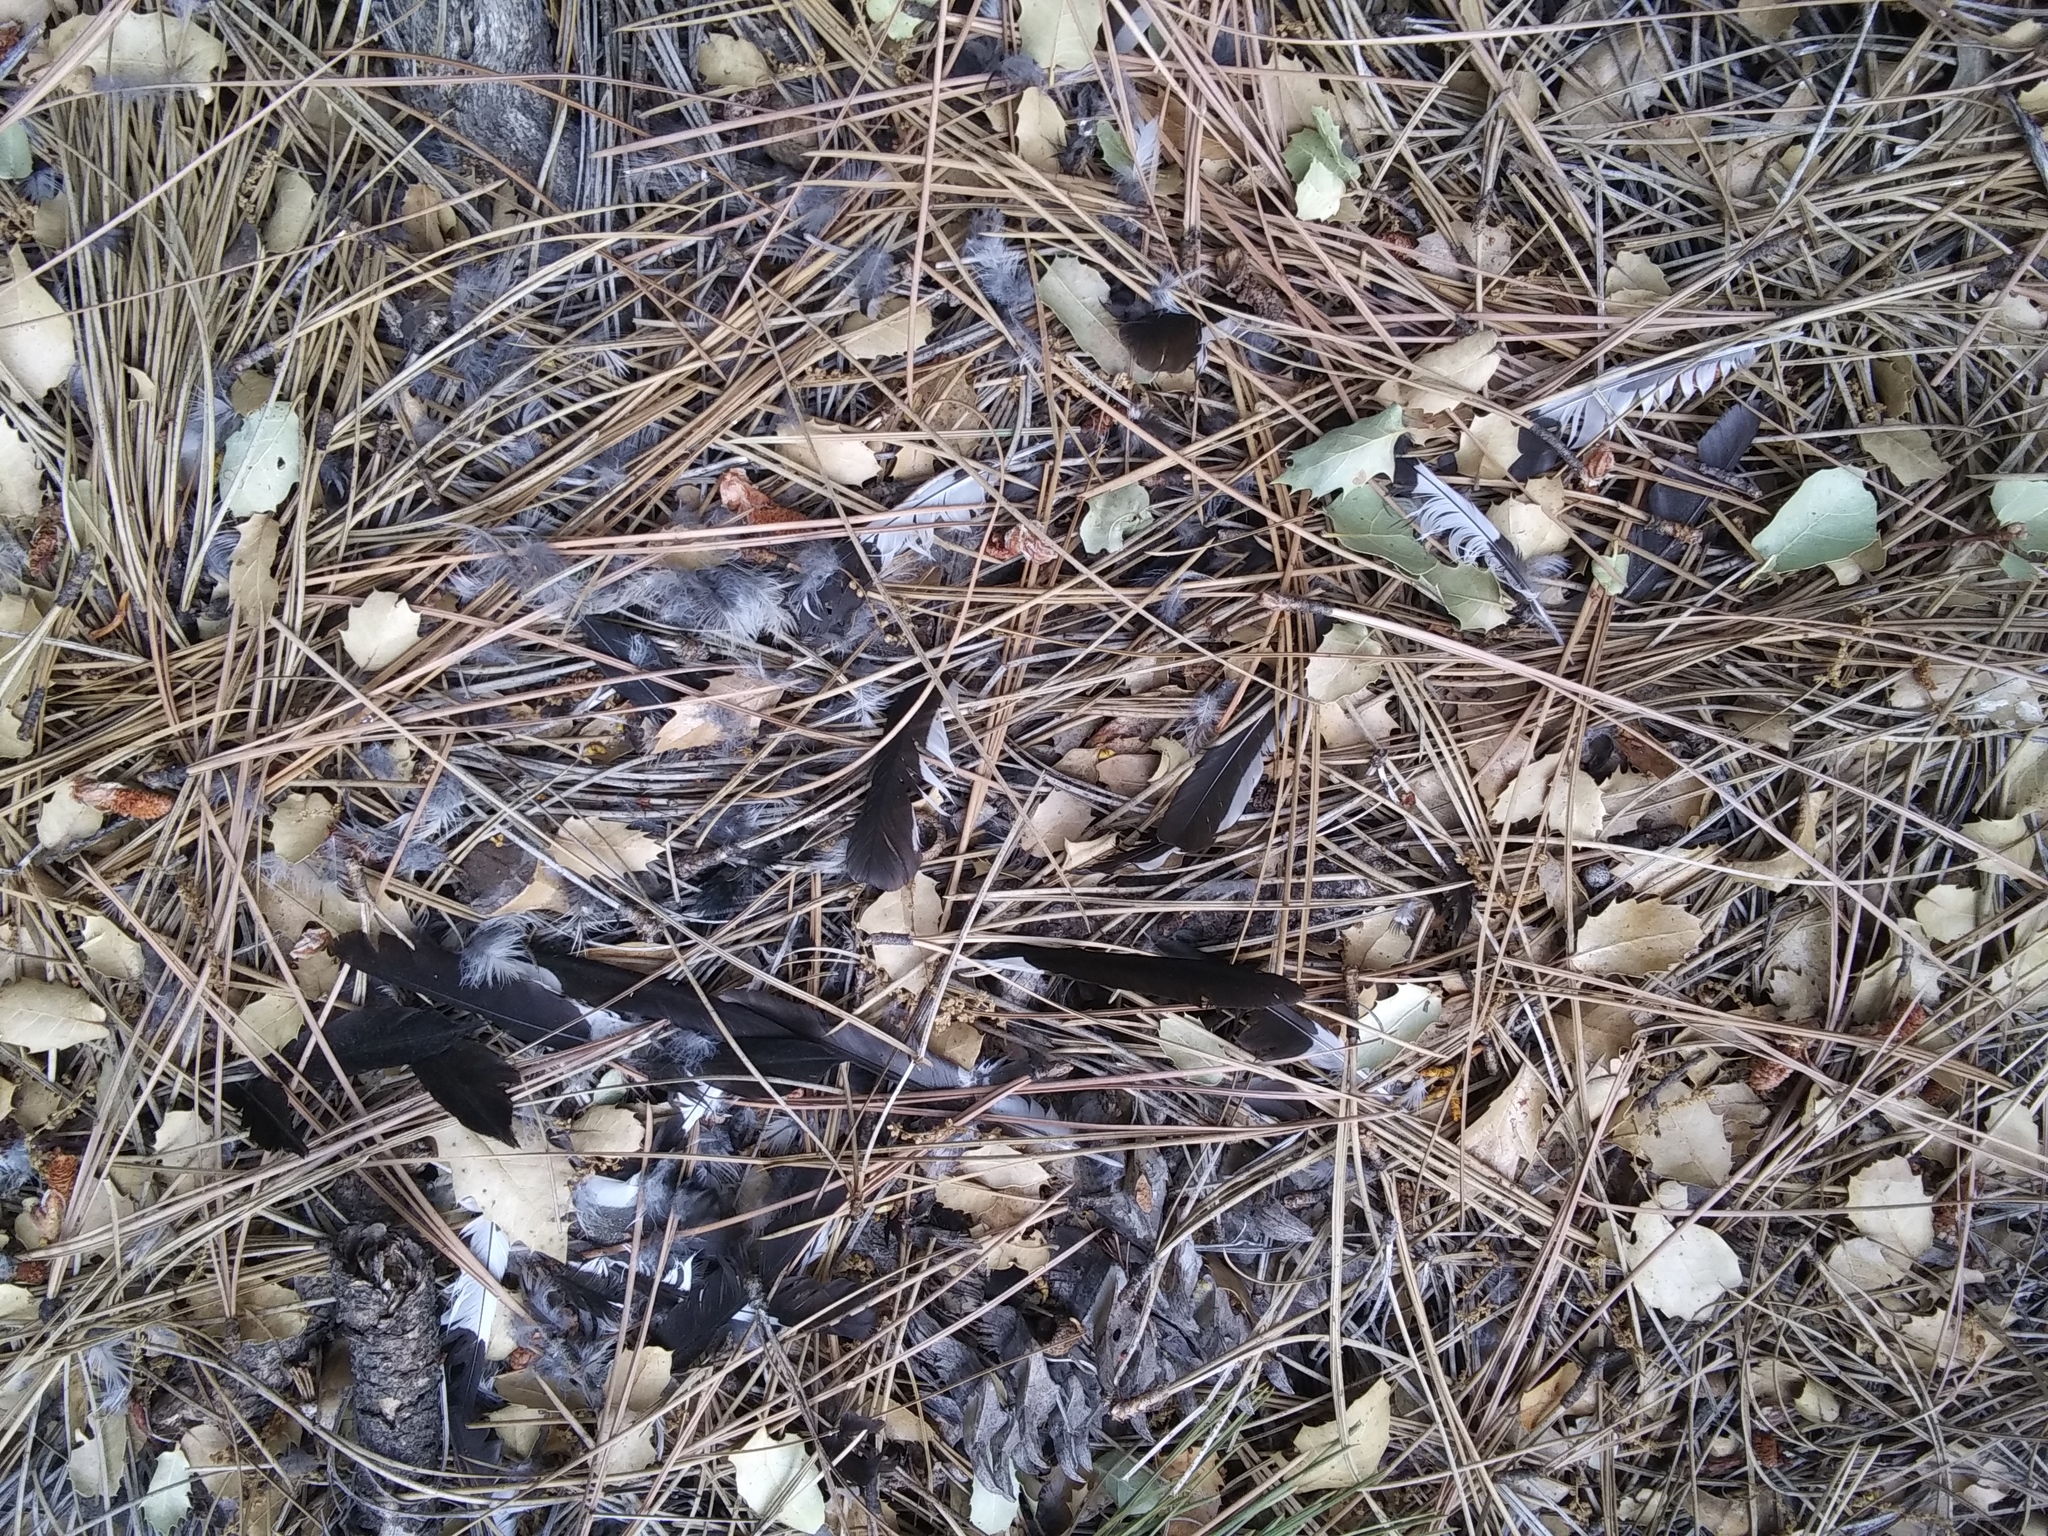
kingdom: Animalia
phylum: Chordata
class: Aves
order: Piciformes
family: Picidae
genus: Melanerpes
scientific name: Melanerpes formicivorus
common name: Acorn woodpecker
